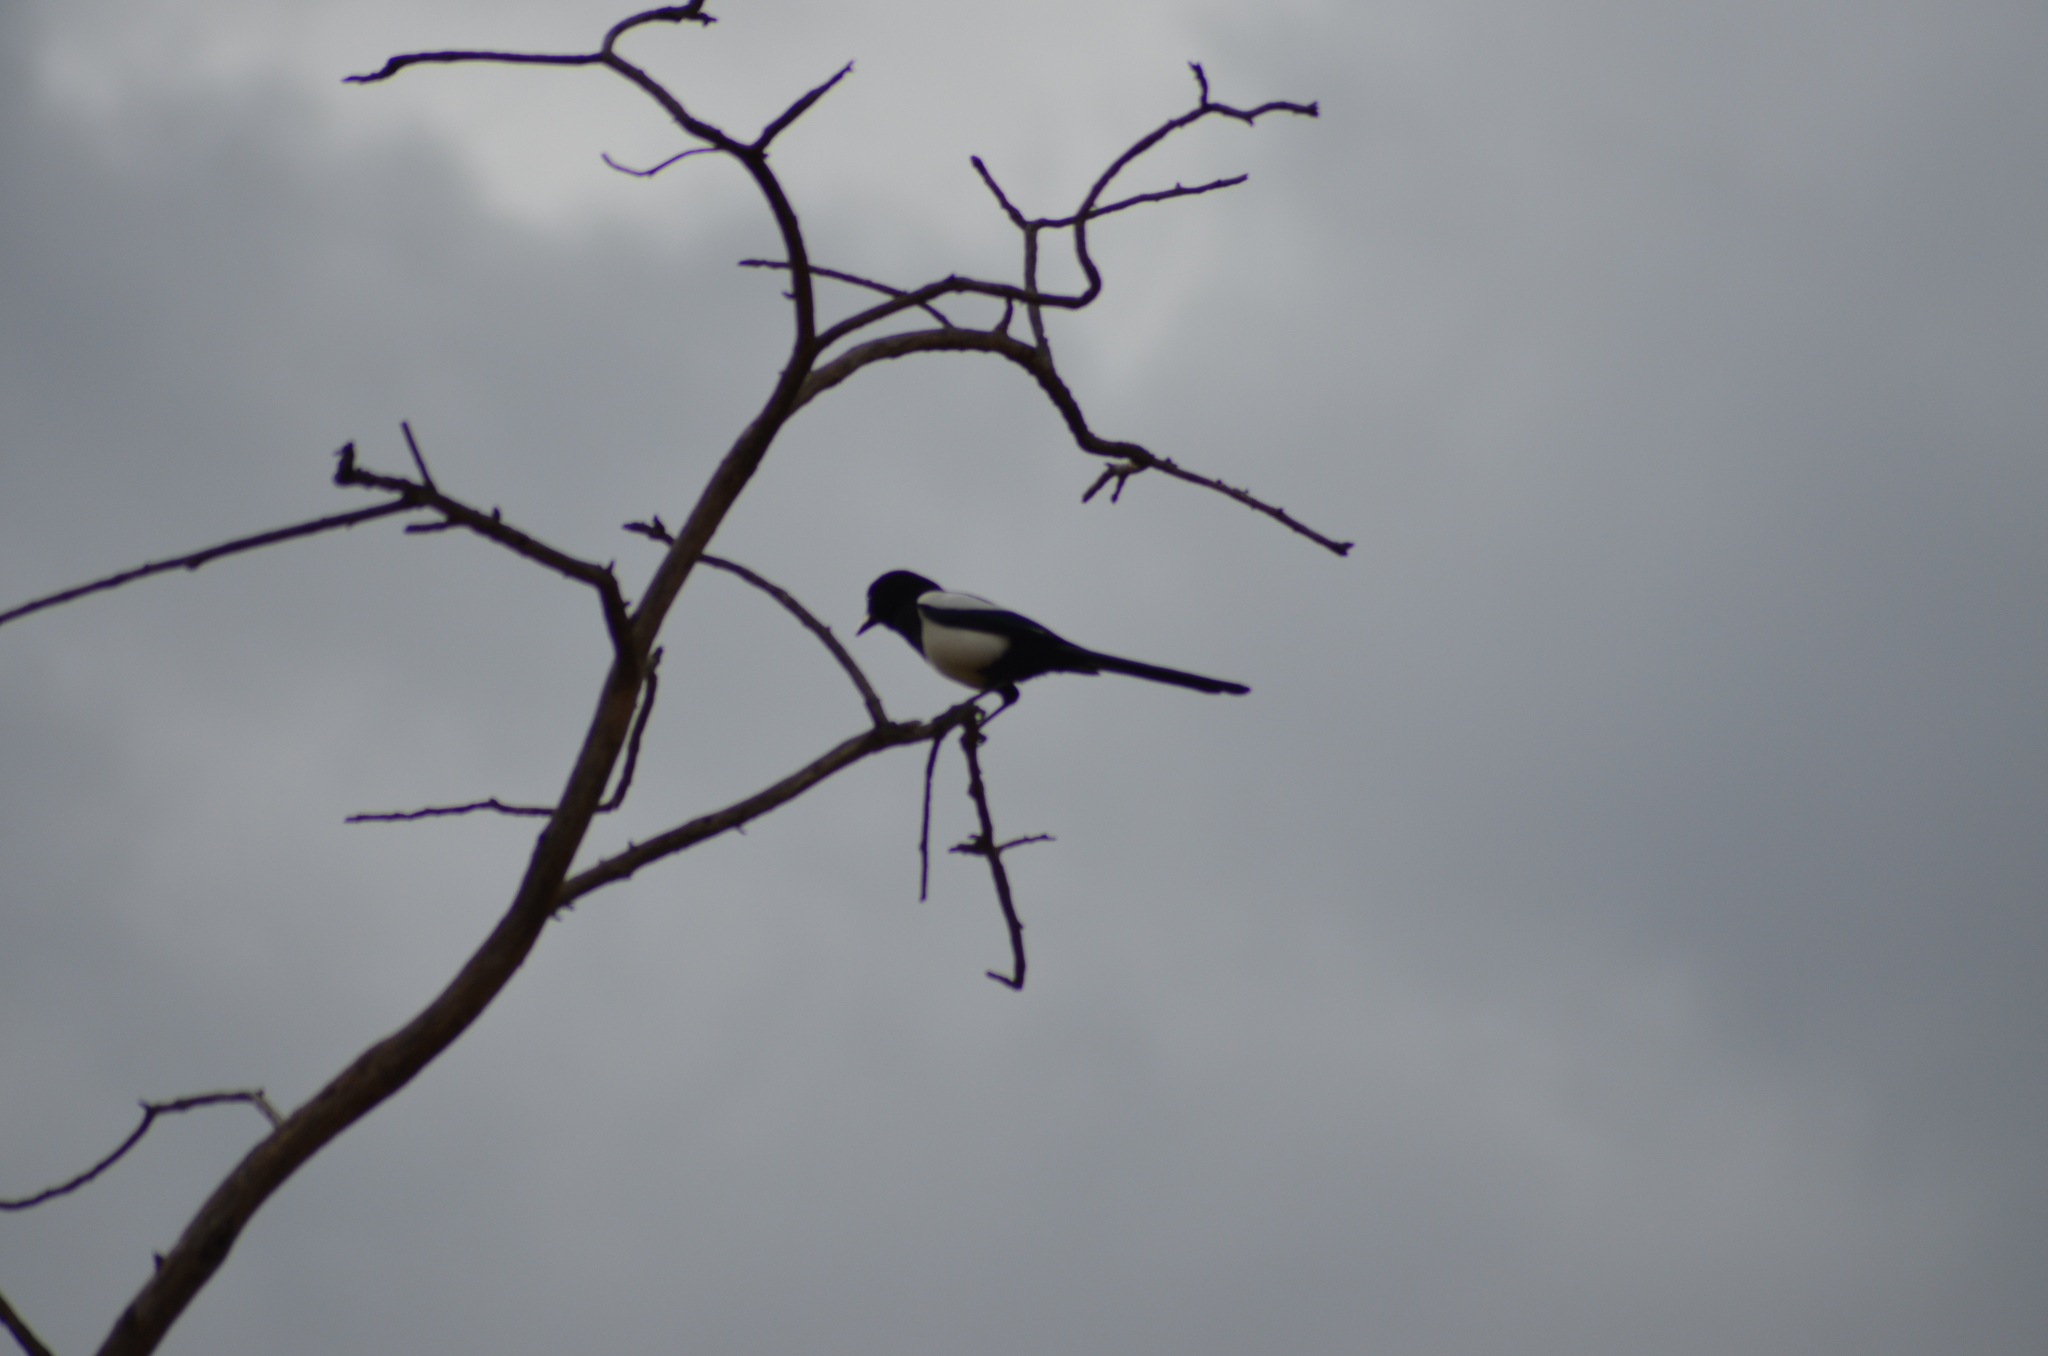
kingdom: Animalia
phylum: Chordata
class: Aves
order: Passeriformes
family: Corvidae
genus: Pica
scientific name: Pica pica
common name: Eurasian magpie
